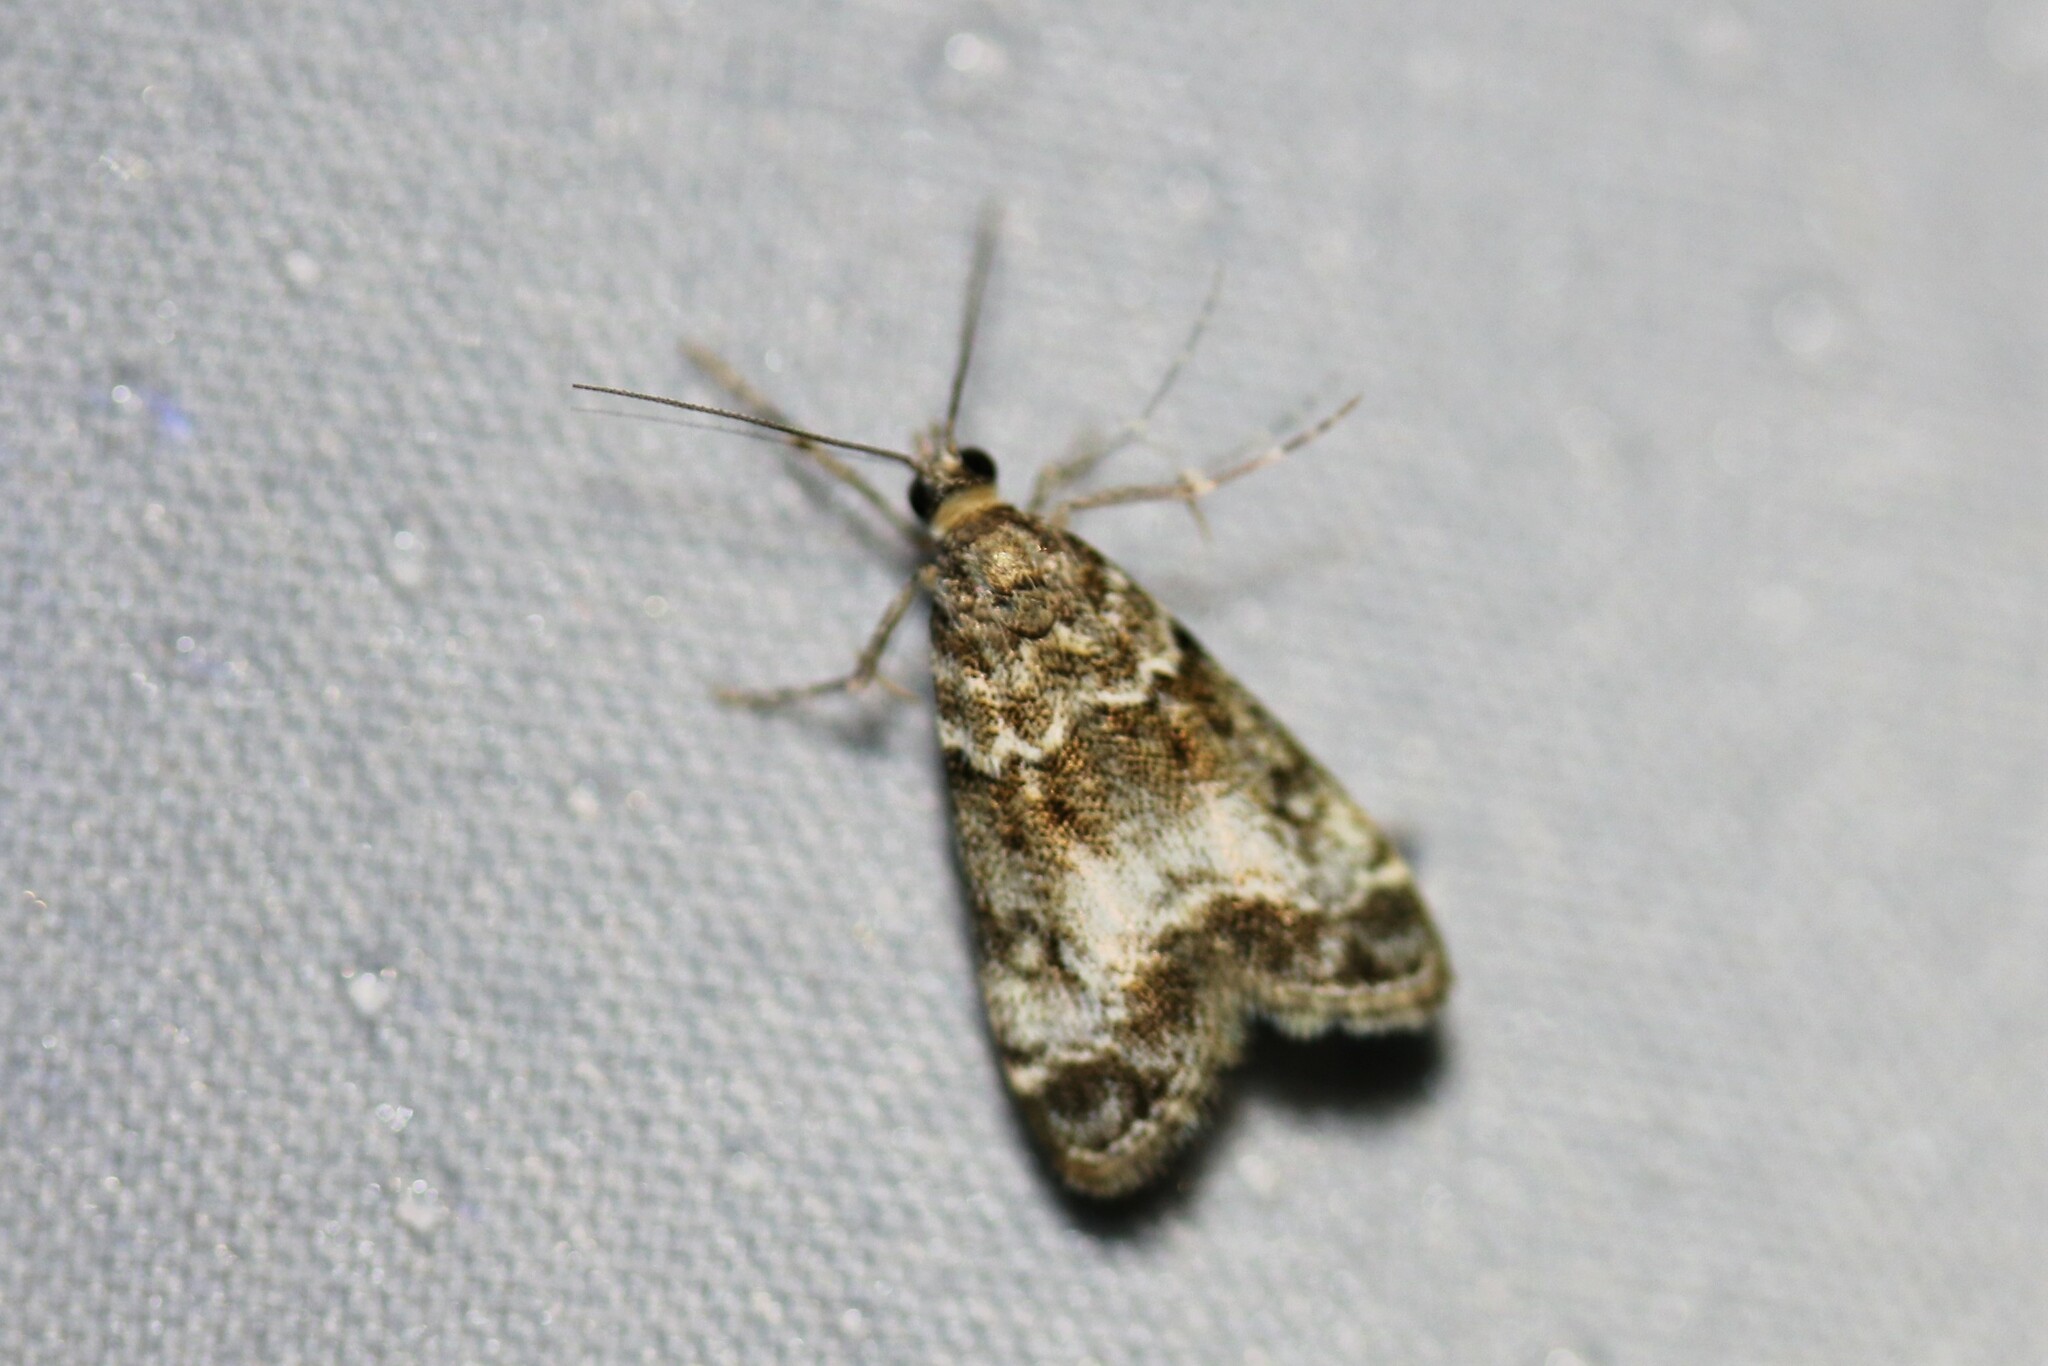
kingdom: Animalia
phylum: Arthropoda
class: Insecta
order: Lepidoptera
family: Crambidae
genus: Eudonia
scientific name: Eudonia mercurella
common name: Small grey
